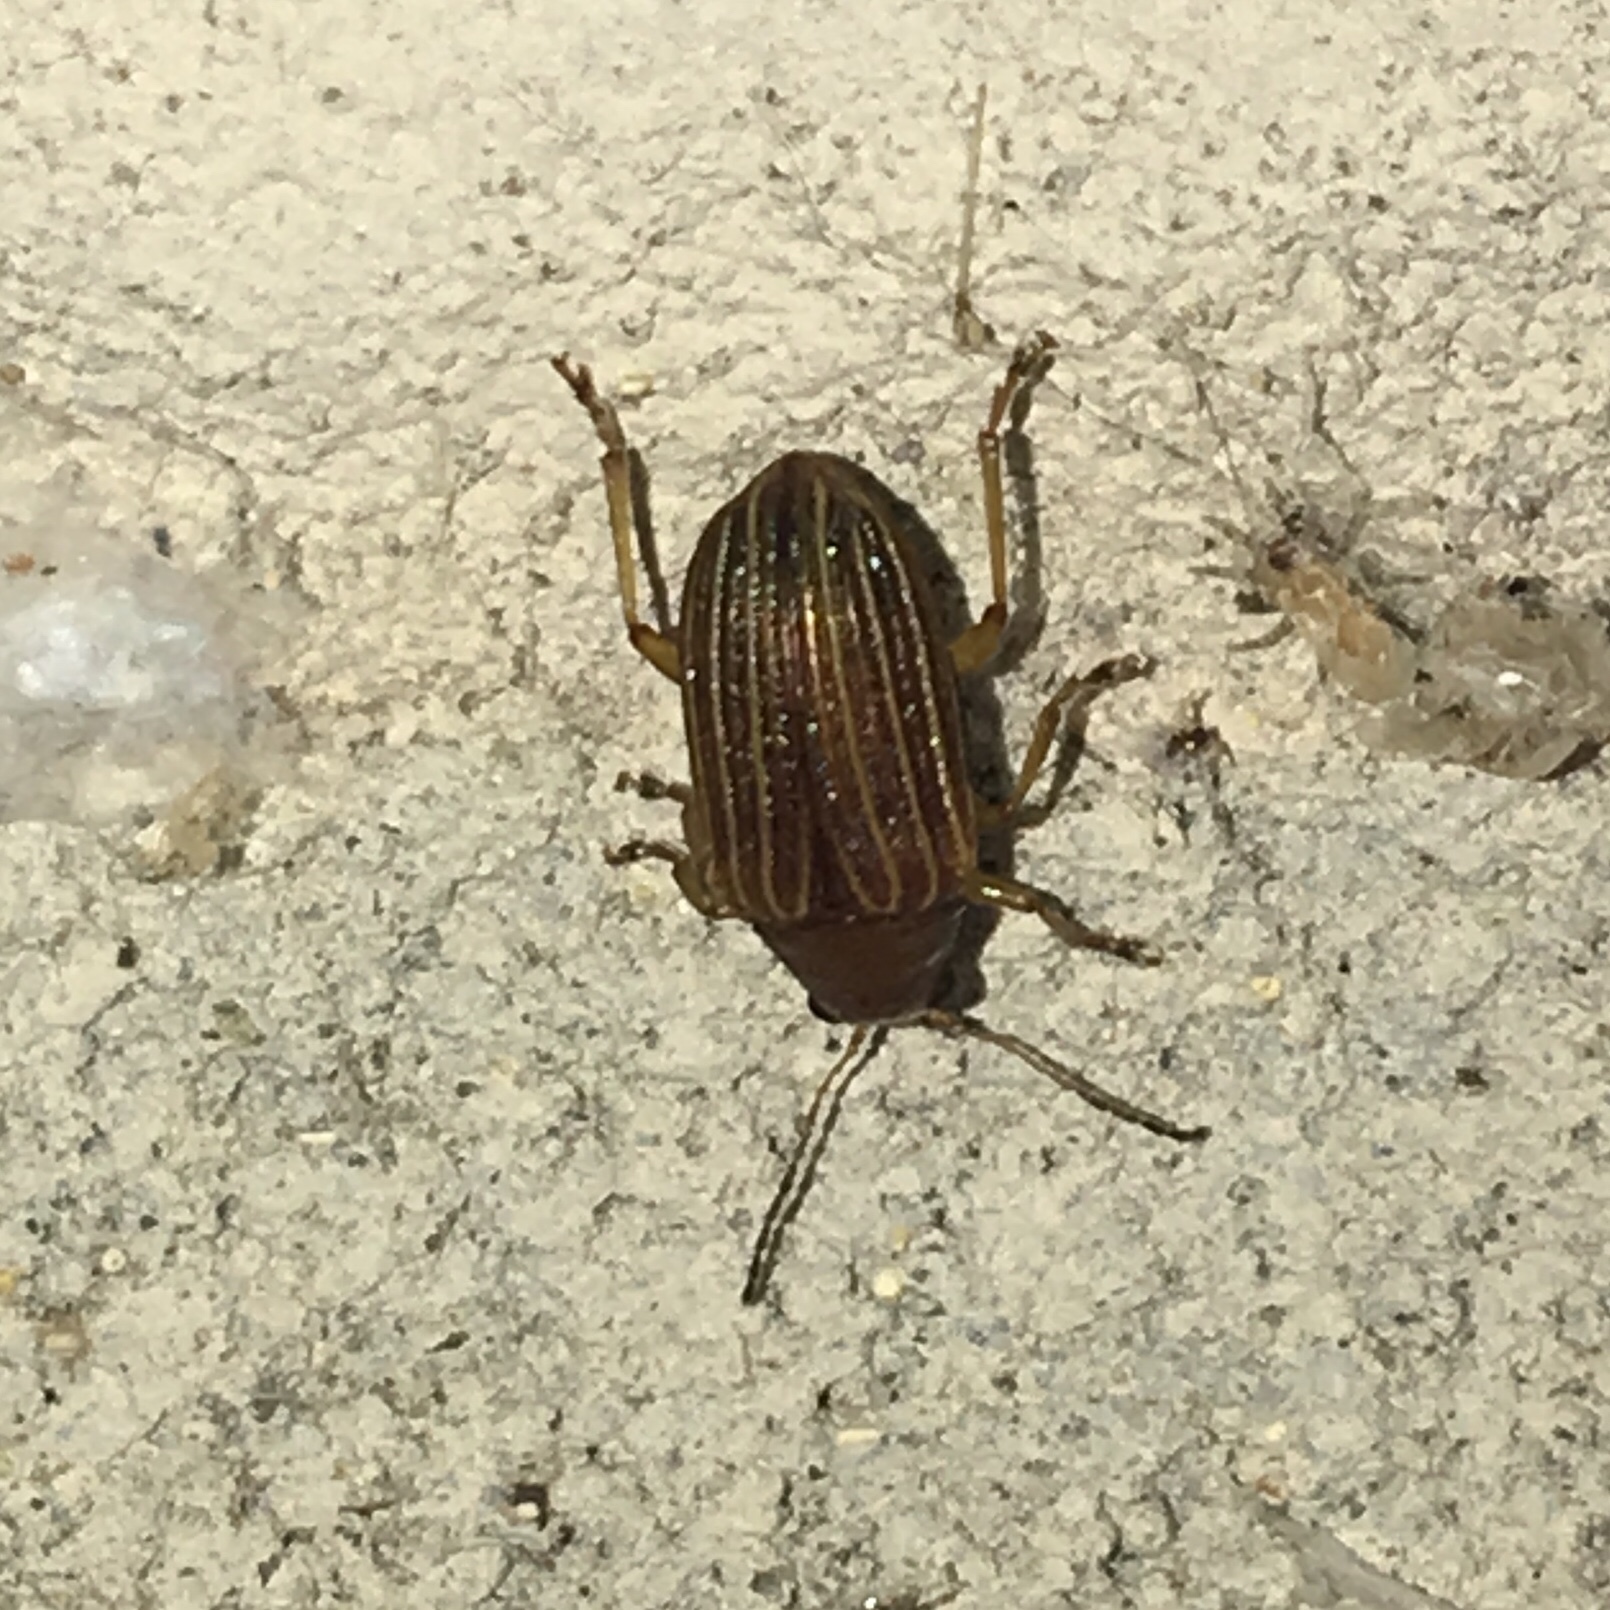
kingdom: Animalia
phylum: Arthropoda
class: Insecta
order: Coleoptera
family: Chrysomelidae
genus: Colaspis
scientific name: Colaspis pini
